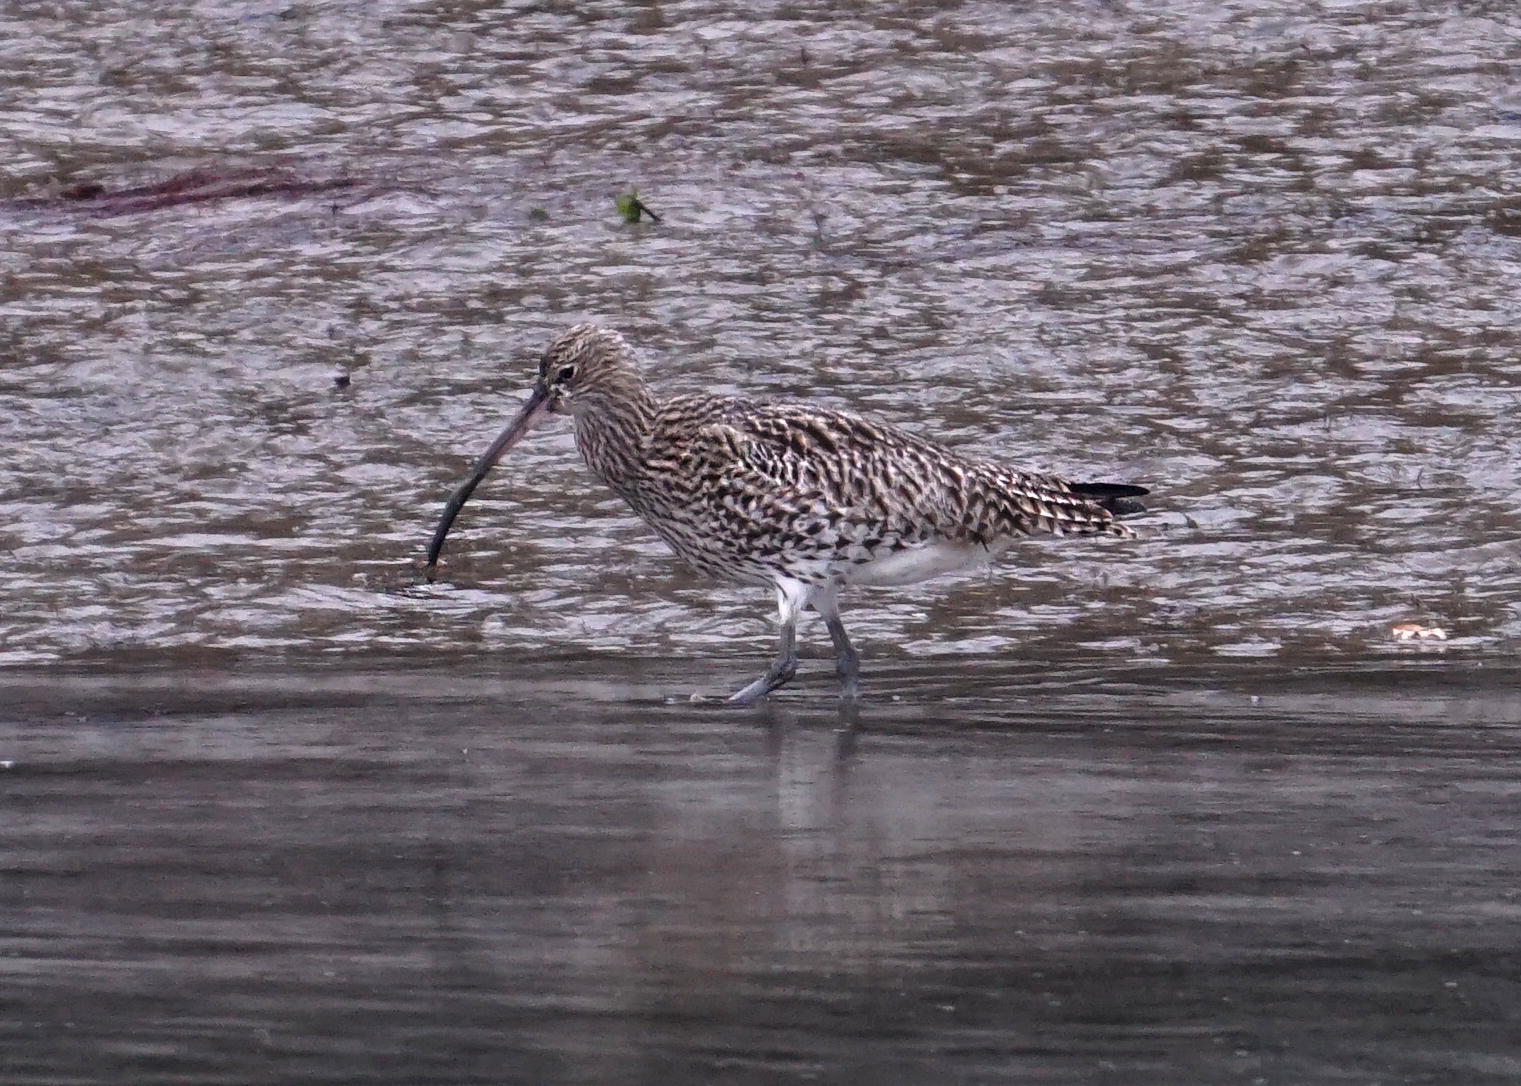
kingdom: Animalia
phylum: Chordata
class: Aves
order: Charadriiformes
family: Scolopacidae
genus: Numenius
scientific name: Numenius arquata
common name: Eurasian curlew
